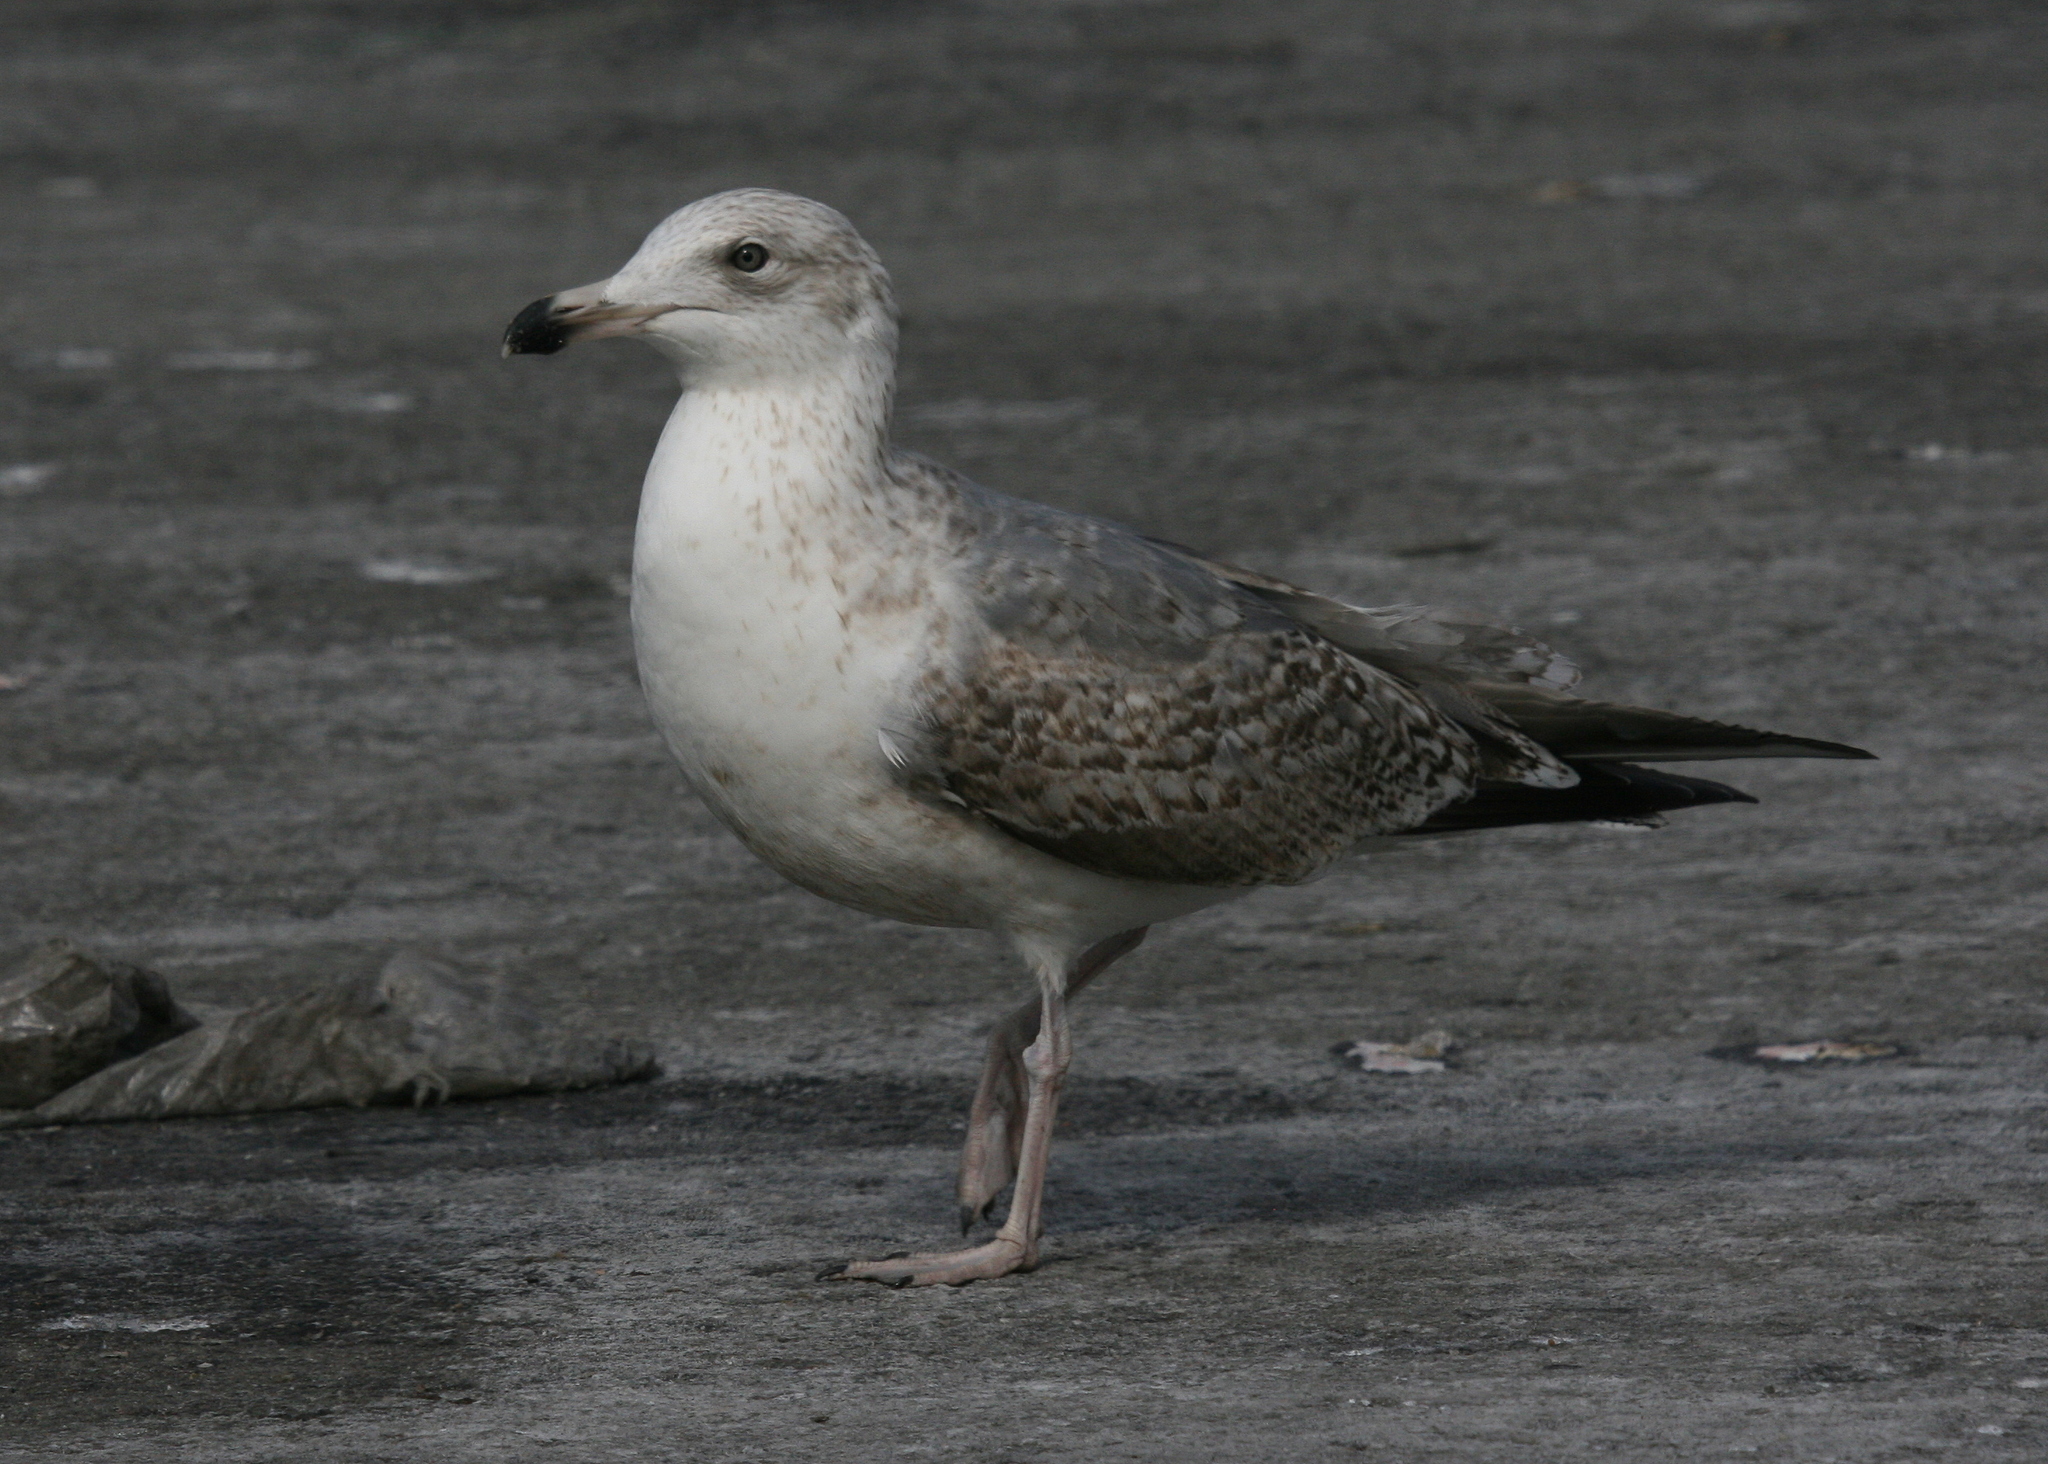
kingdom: Animalia
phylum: Chordata
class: Aves
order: Charadriiformes
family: Laridae
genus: Larus
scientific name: Larus argentatus
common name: Herring gull
